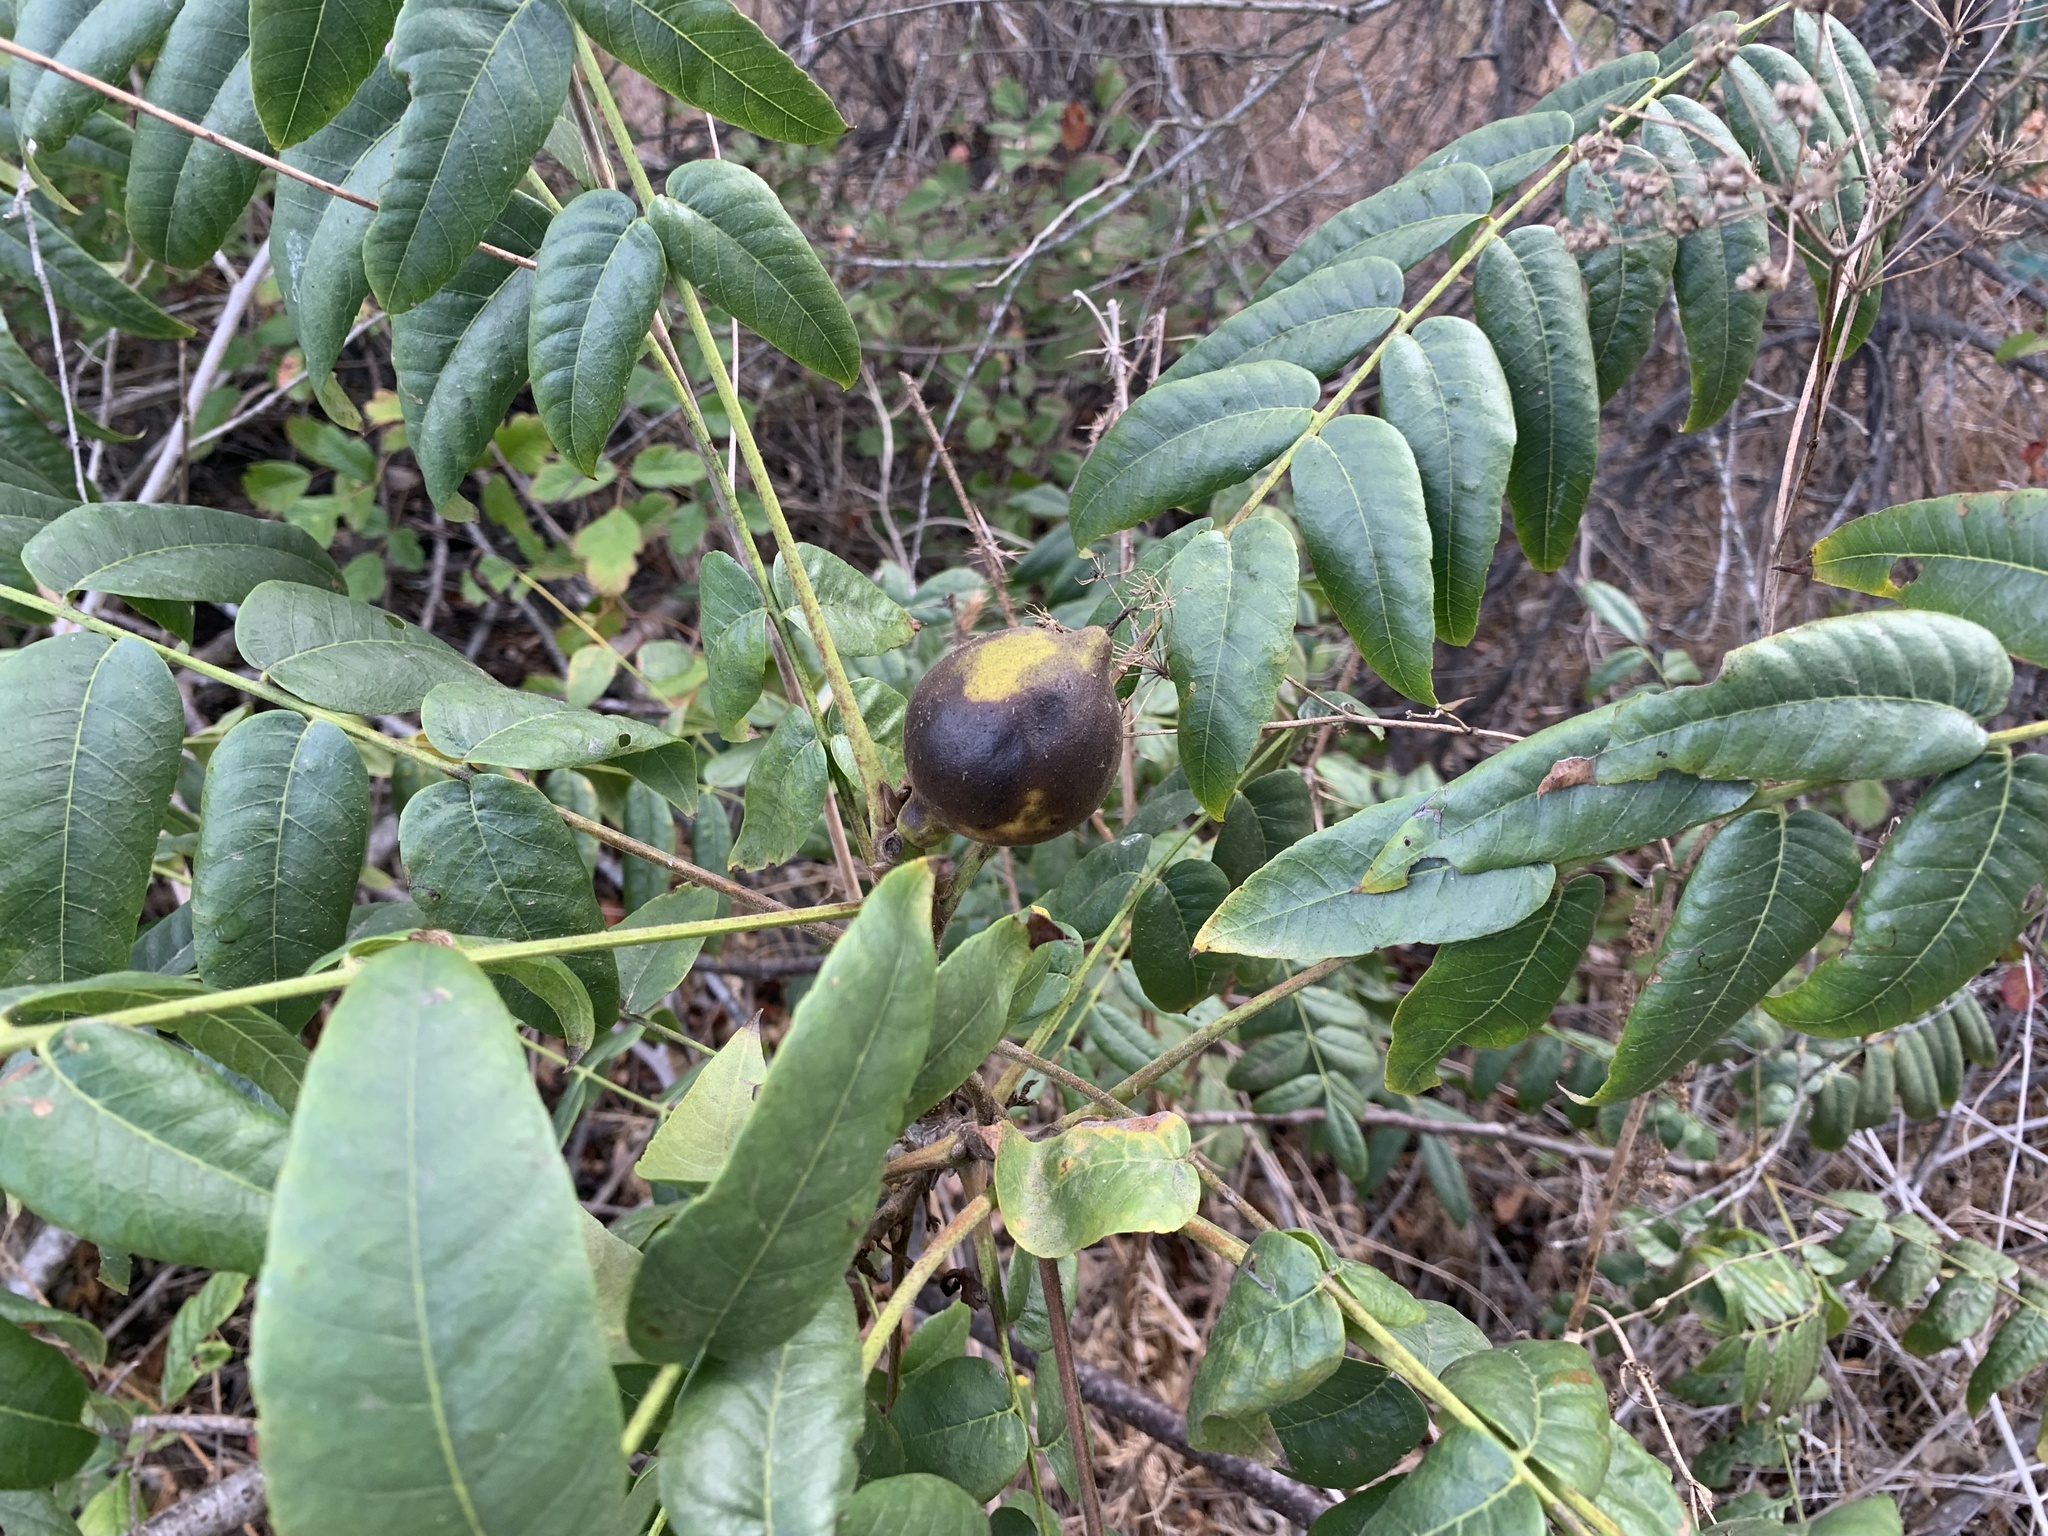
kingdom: Plantae
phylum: Tracheophyta
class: Magnoliopsida
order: Fagales
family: Juglandaceae
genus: Juglans
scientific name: Juglans californica
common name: Southern california black walnut
